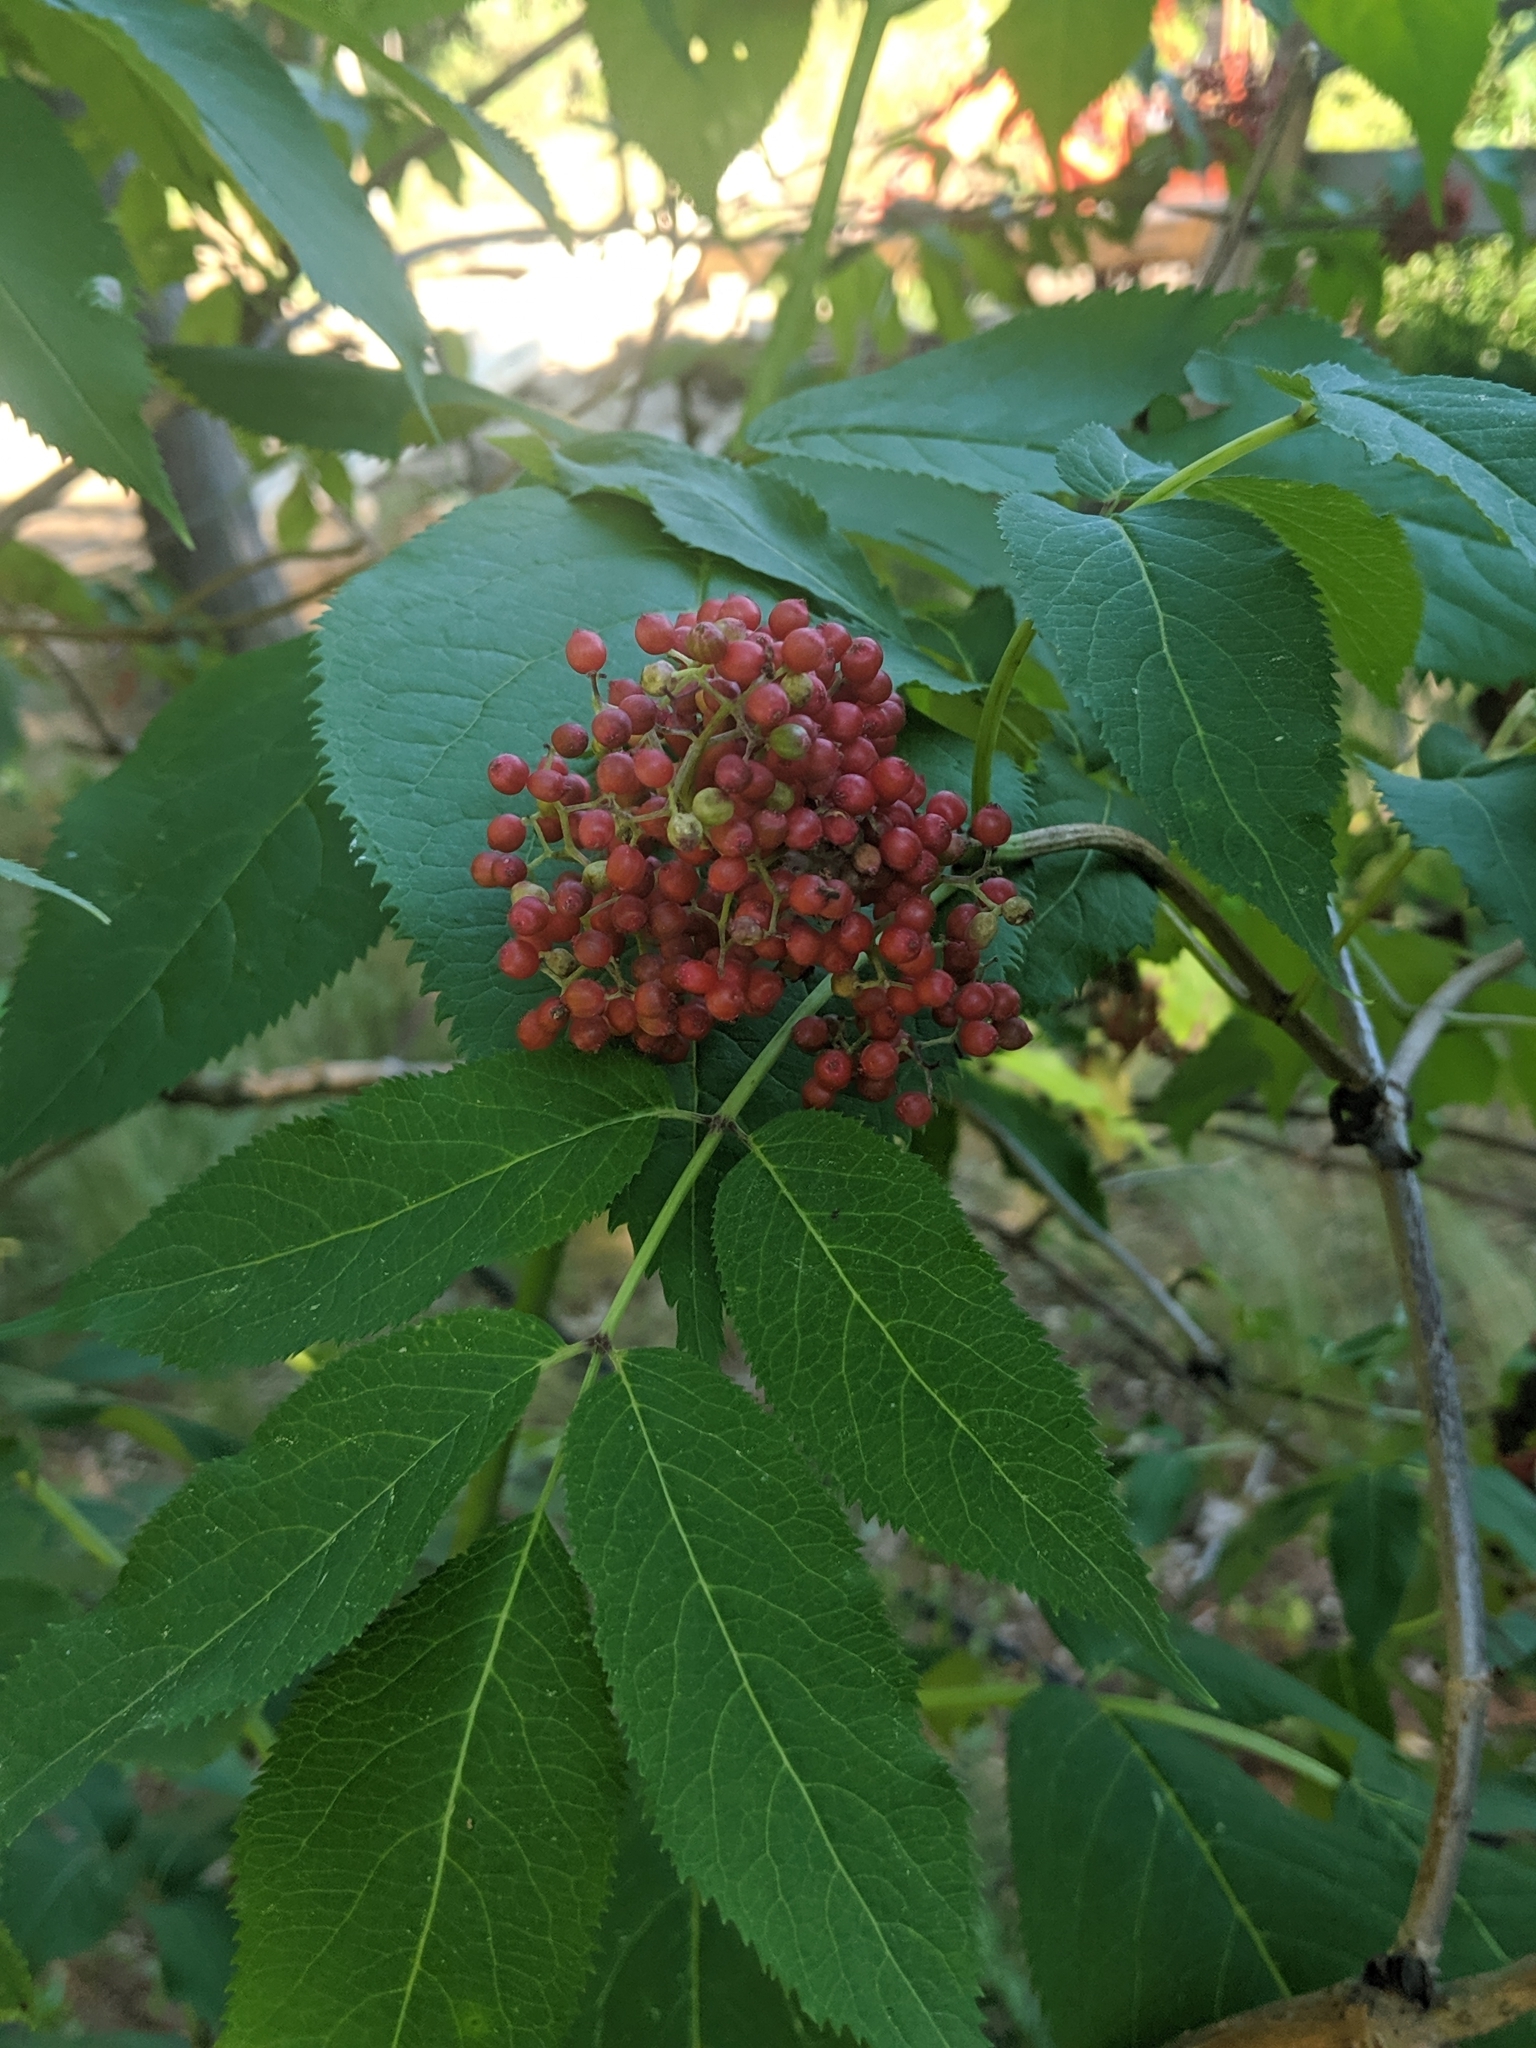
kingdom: Plantae
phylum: Tracheophyta
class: Magnoliopsida
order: Dipsacales
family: Viburnaceae
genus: Sambucus
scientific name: Sambucus racemosa
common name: Red-berried elder
